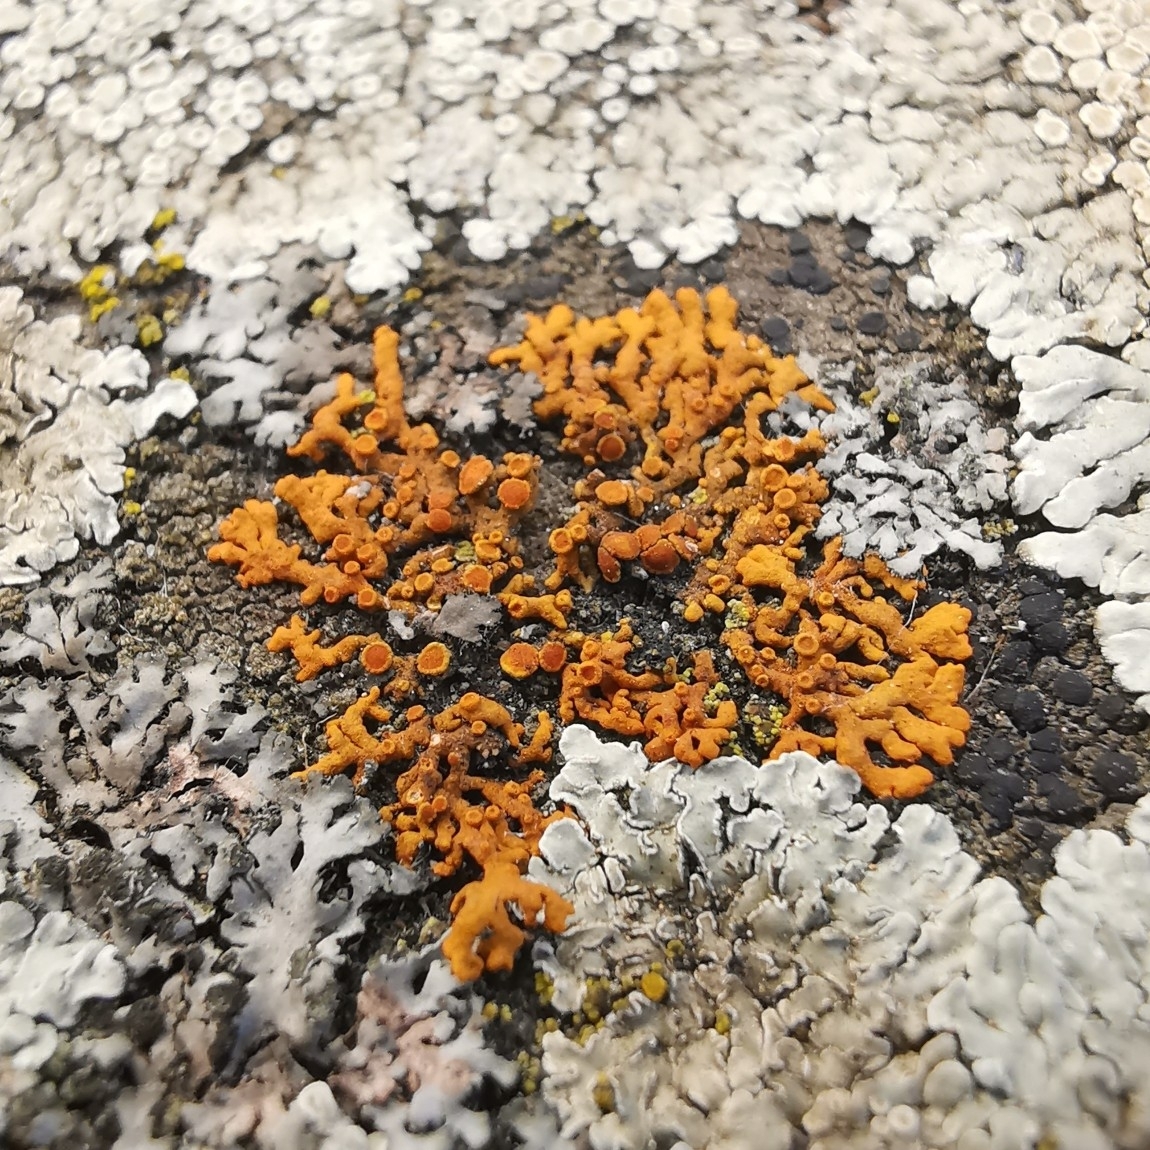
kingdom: Fungi
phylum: Ascomycota
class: Lecanoromycetes
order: Teloschistales
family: Teloschistaceae
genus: Xanthoria
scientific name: Xanthoria elegans
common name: Elegant sunburst lichen
